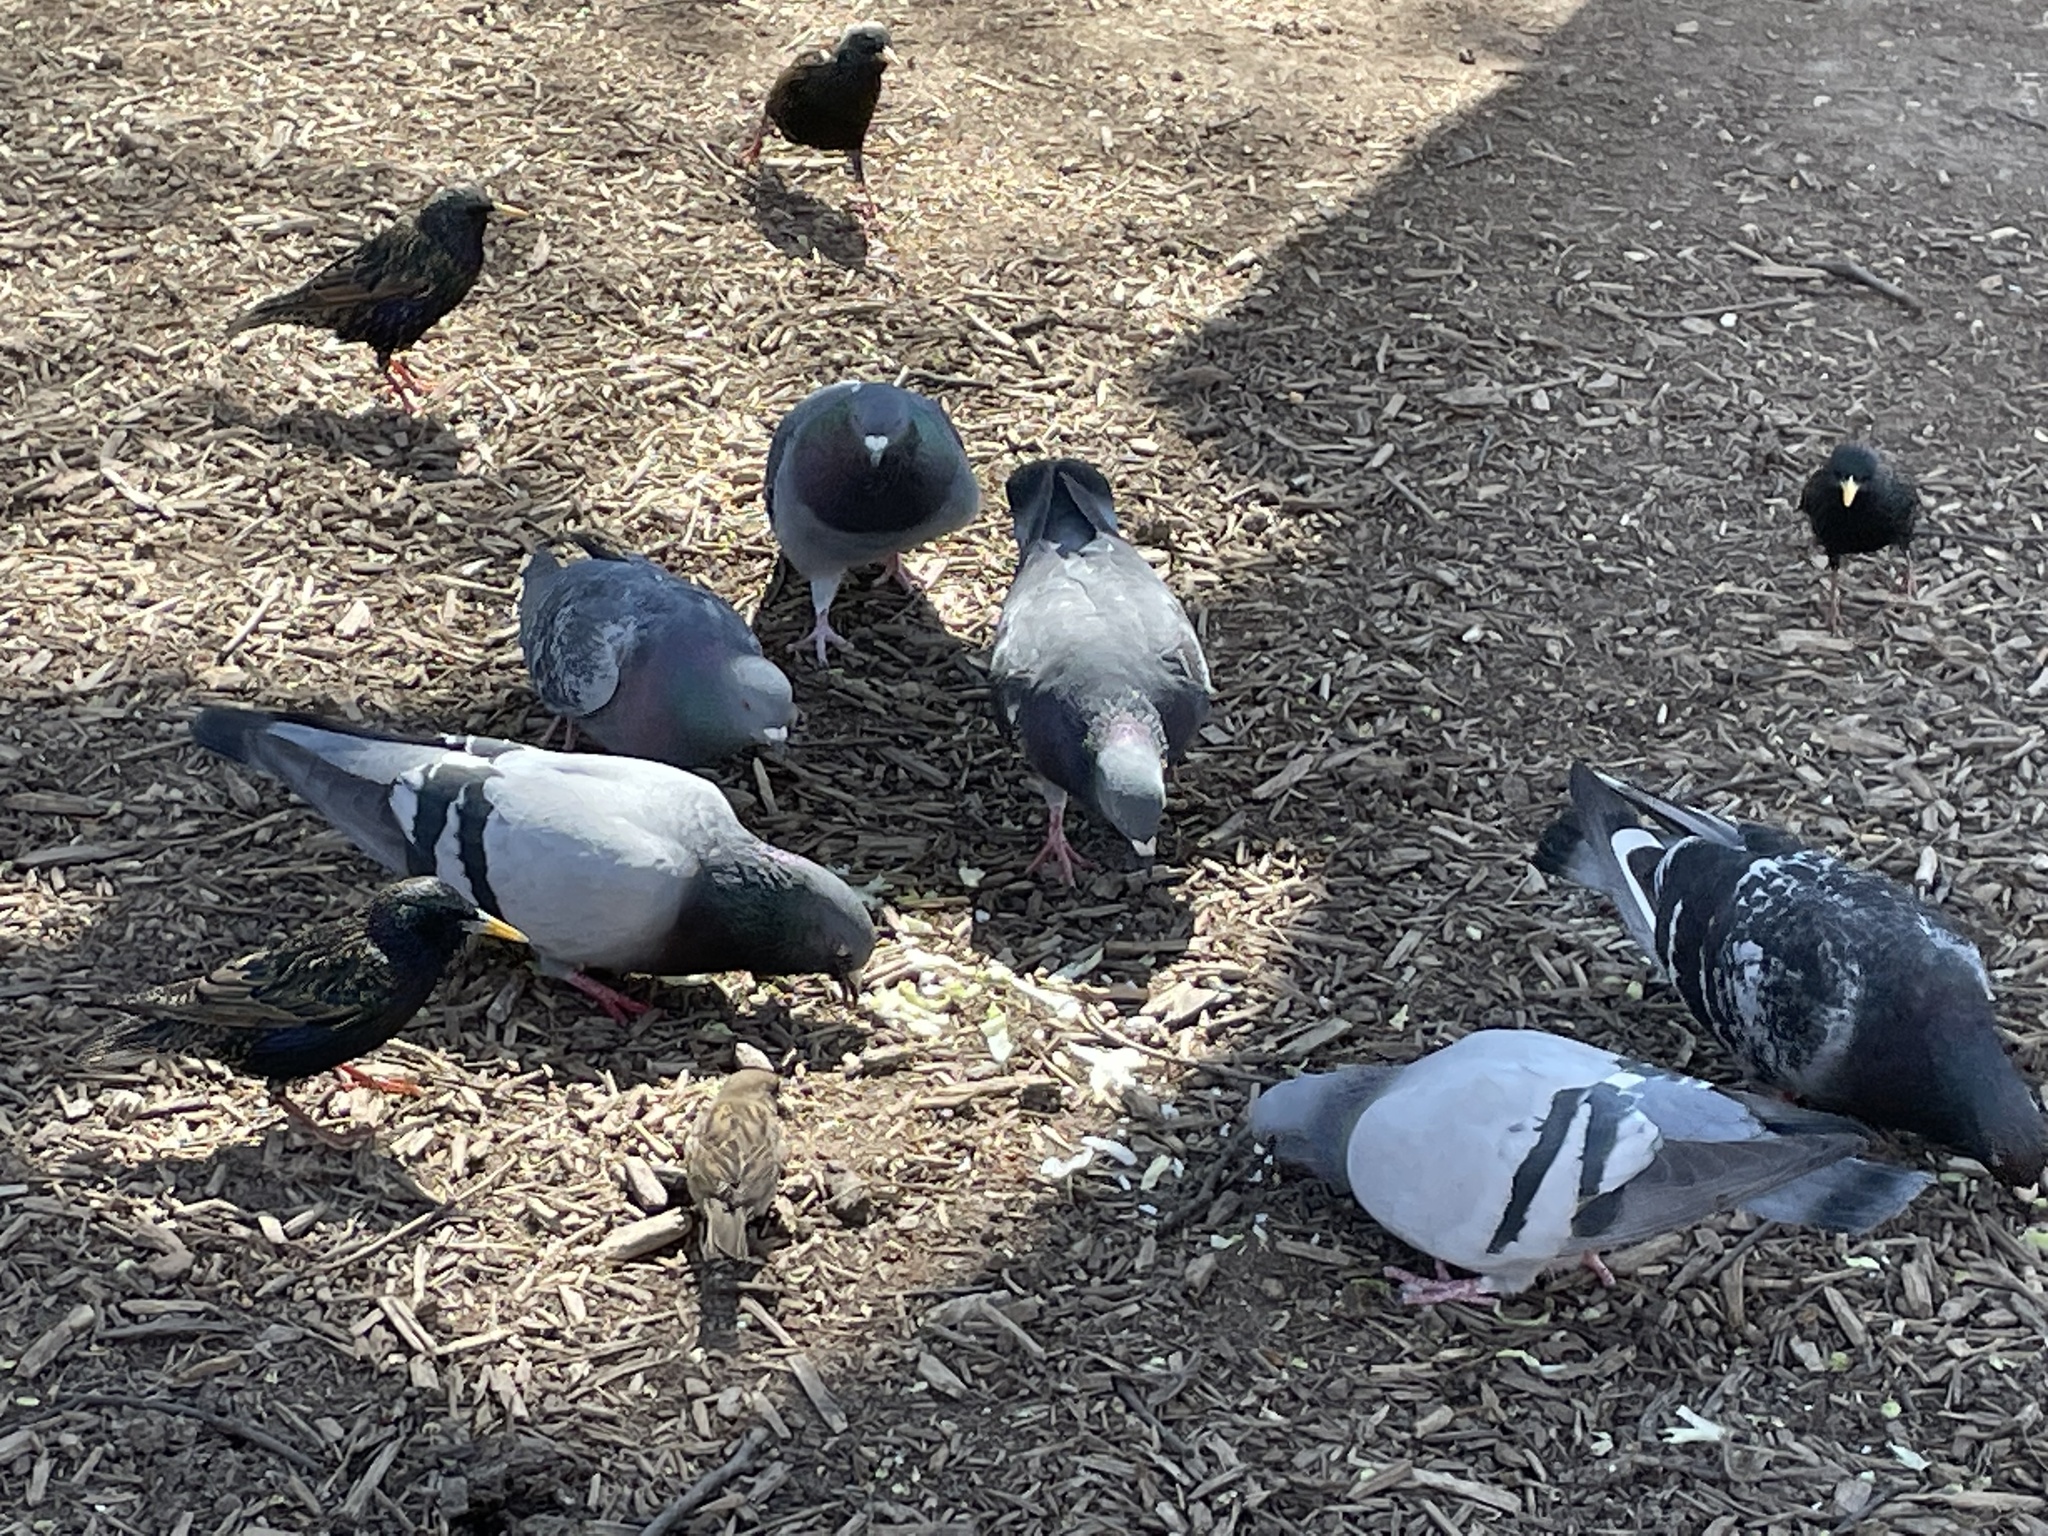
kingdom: Animalia
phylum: Chordata
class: Aves
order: Columbiformes
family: Columbidae
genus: Columba
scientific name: Columba livia
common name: Rock pigeon
